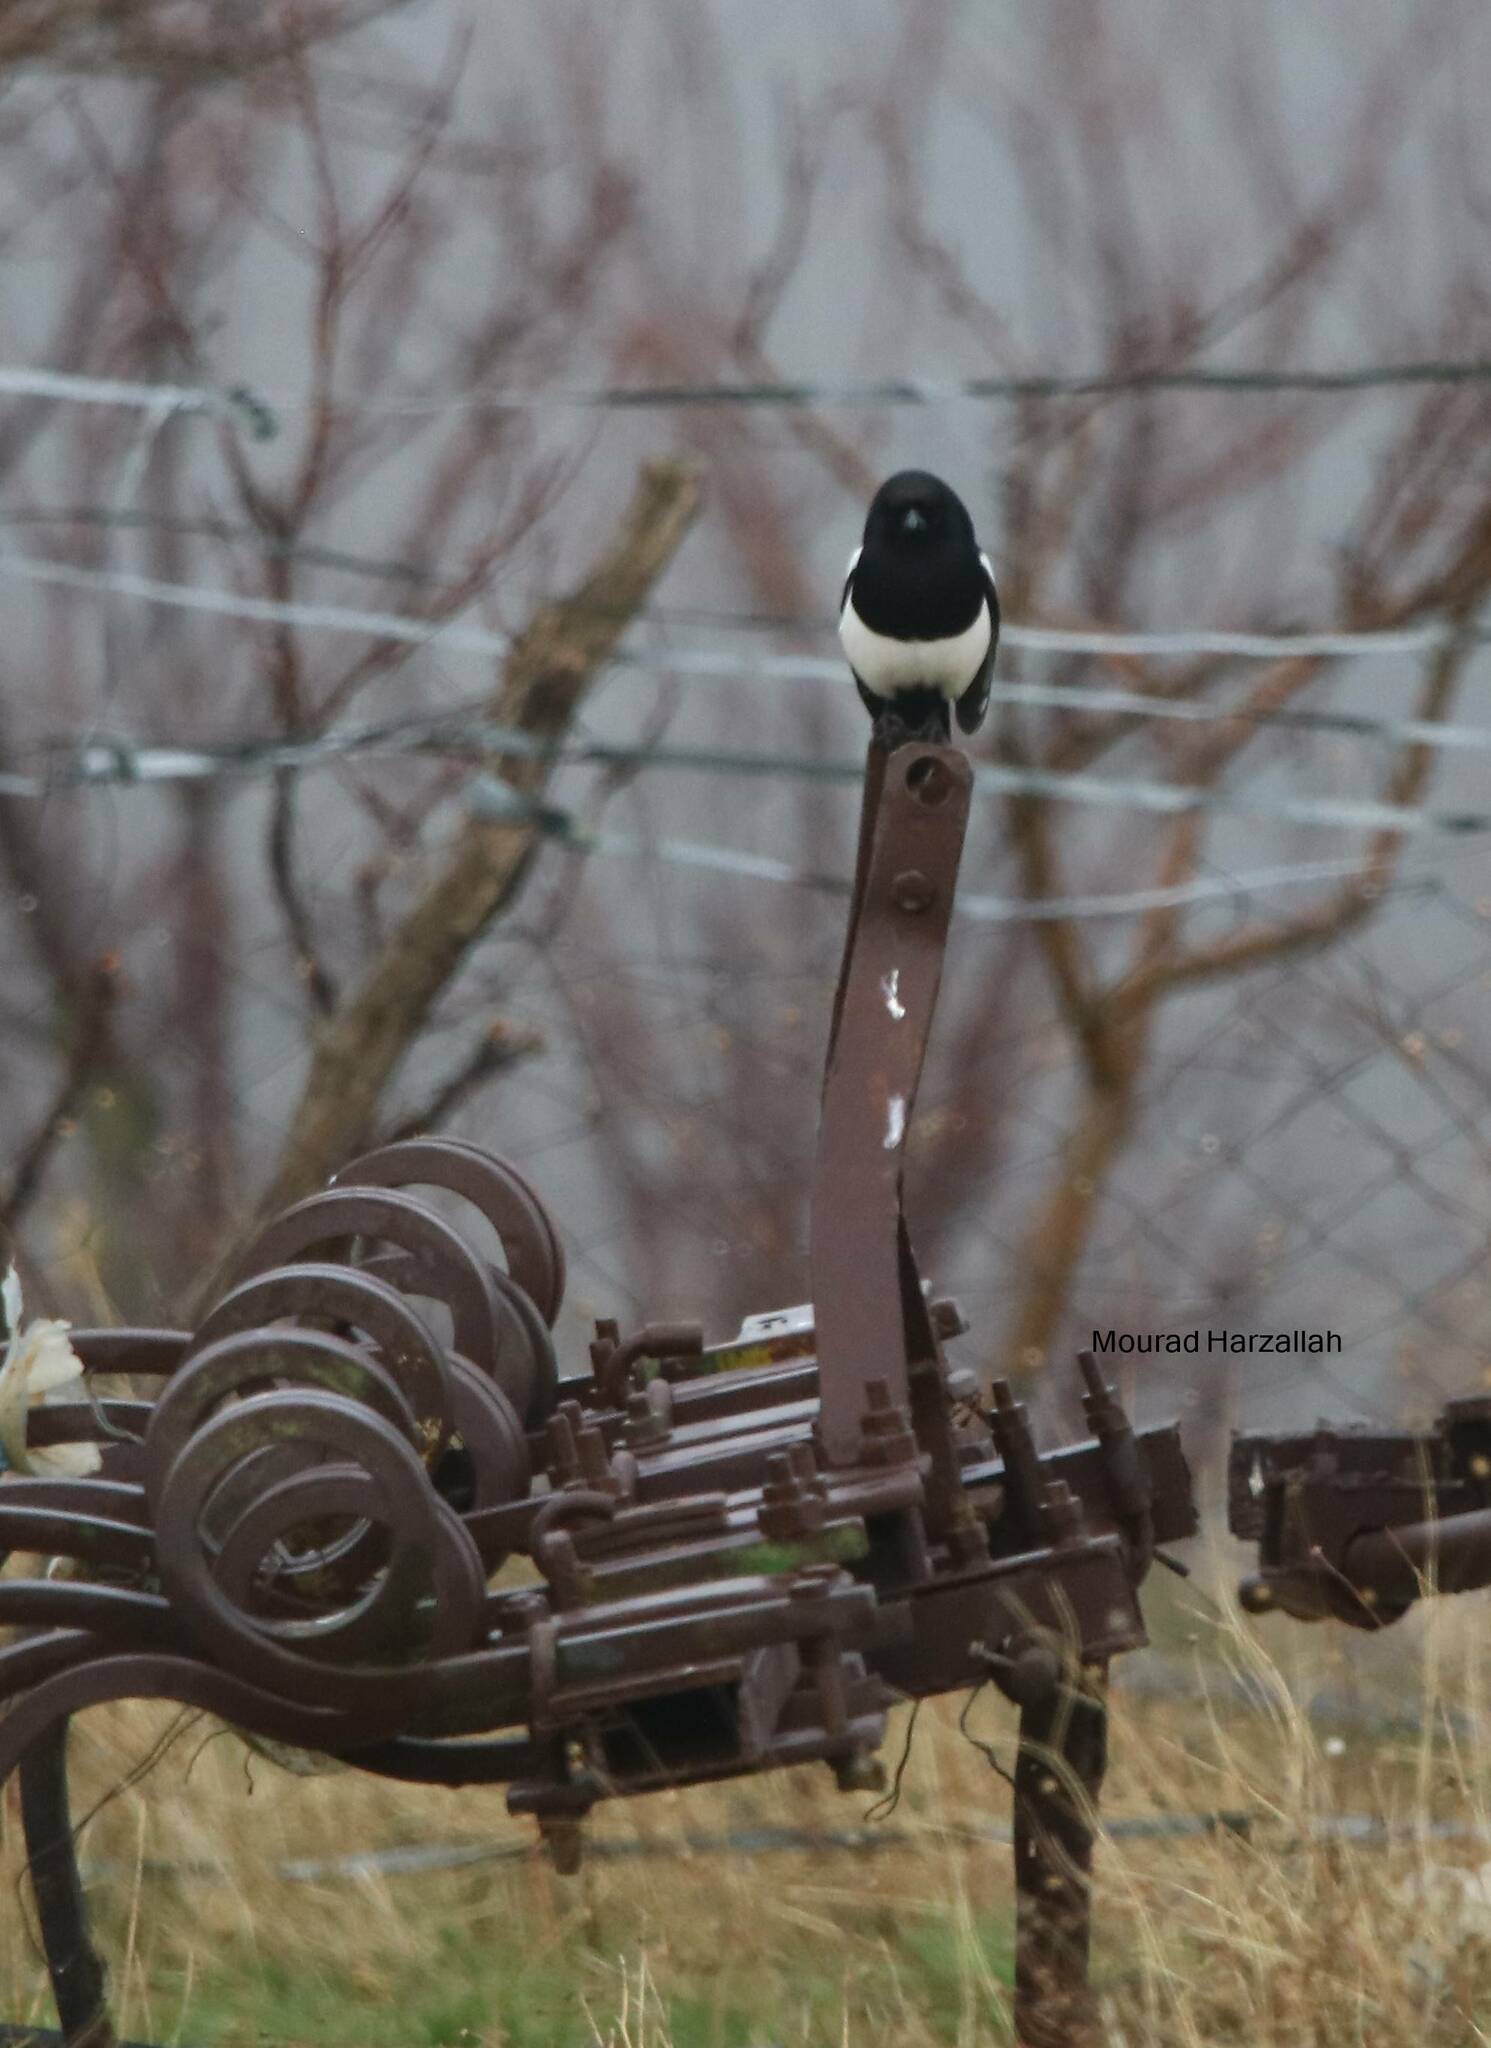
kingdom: Animalia
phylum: Chordata
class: Aves
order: Passeriformes
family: Corvidae
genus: Pica
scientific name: Pica mauritanica
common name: Maghreb magpie
